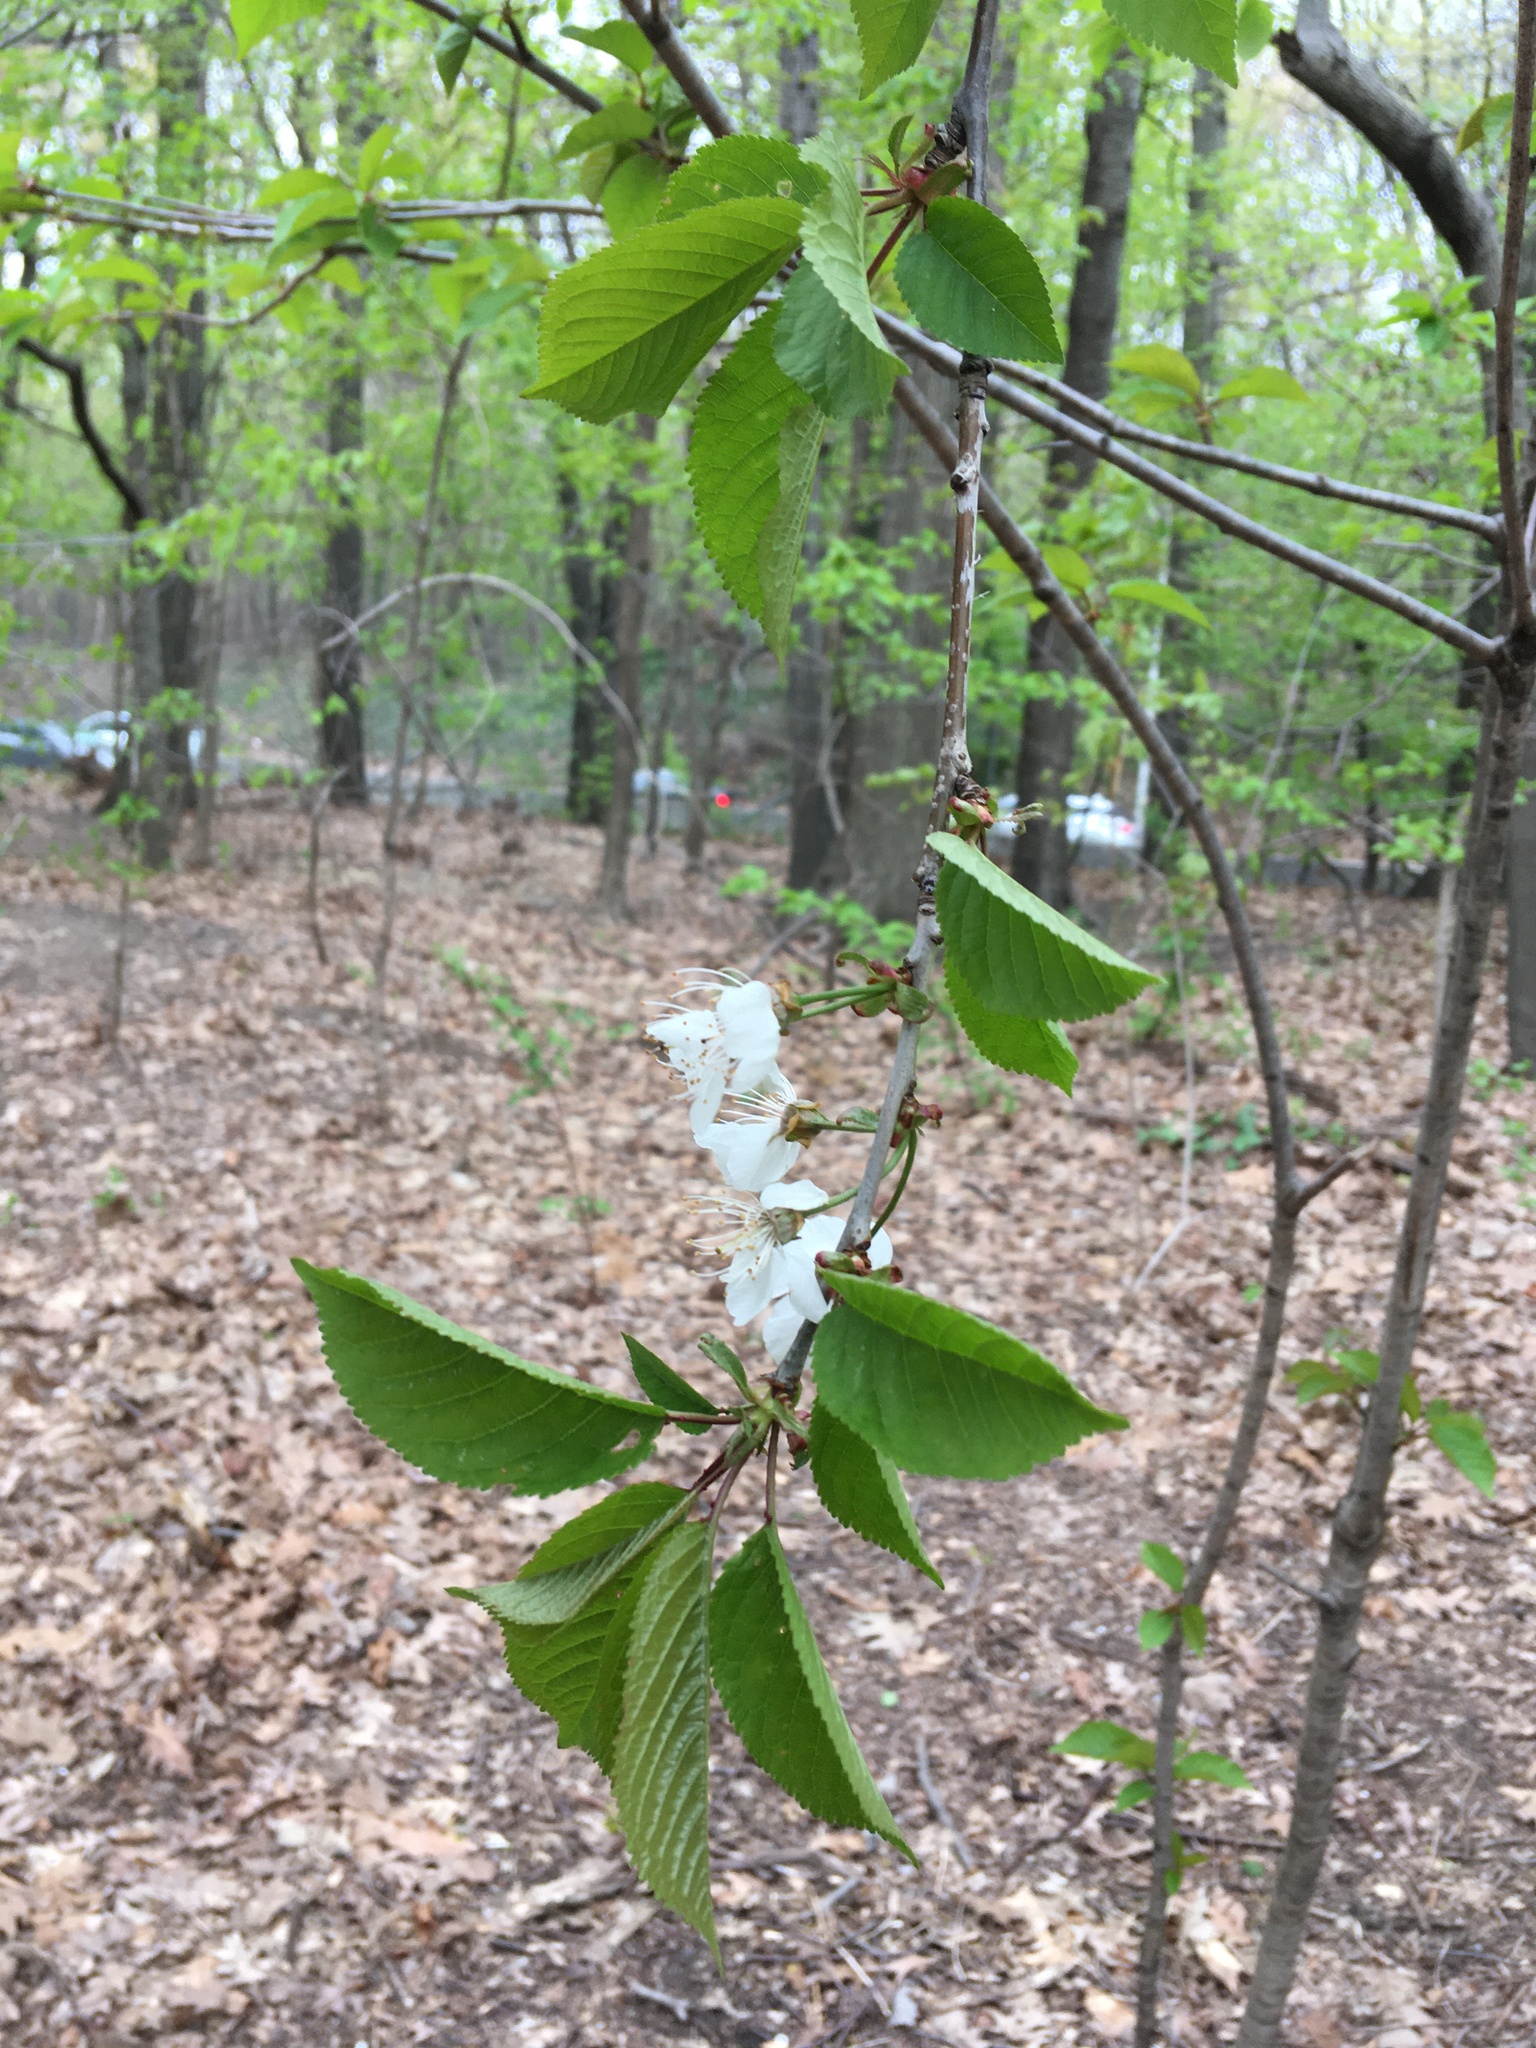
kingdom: Plantae
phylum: Tracheophyta
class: Magnoliopsida
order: Rosales
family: Rosaceae
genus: Prunus
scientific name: Prunus avium
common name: Sweet cherry
